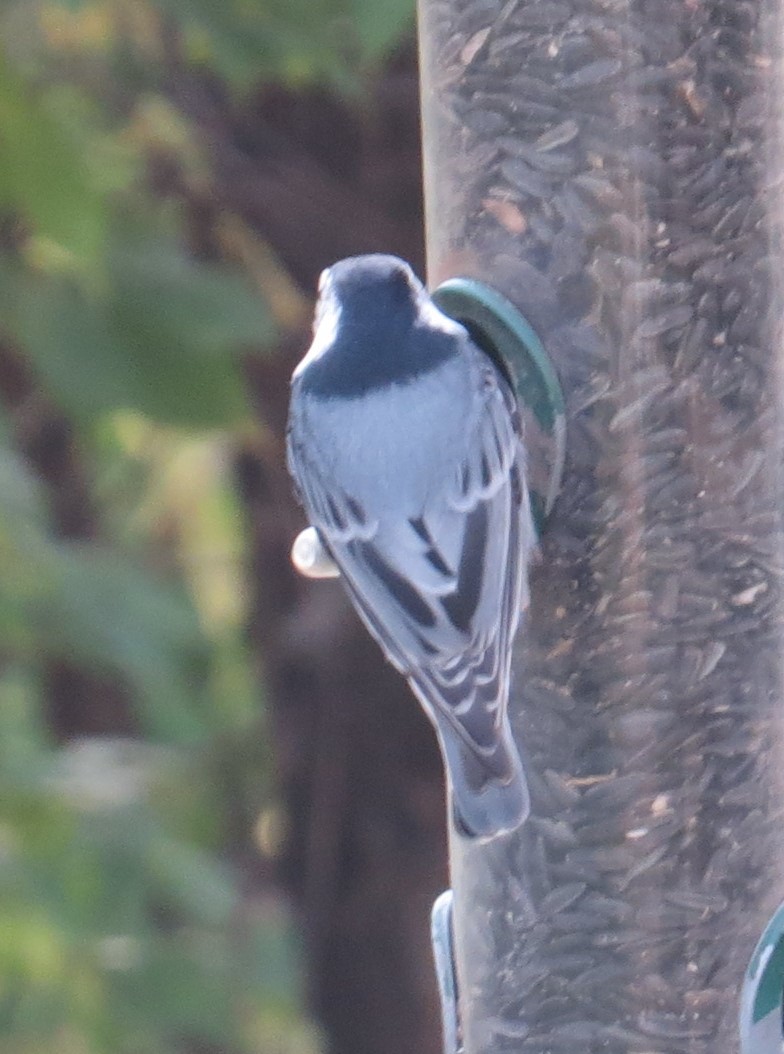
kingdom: Animalia
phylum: Chordata
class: Aves
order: Passeriformes
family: Sittidae
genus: Sitta
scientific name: Sitta carolinensis
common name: White-breasted nuthatch
